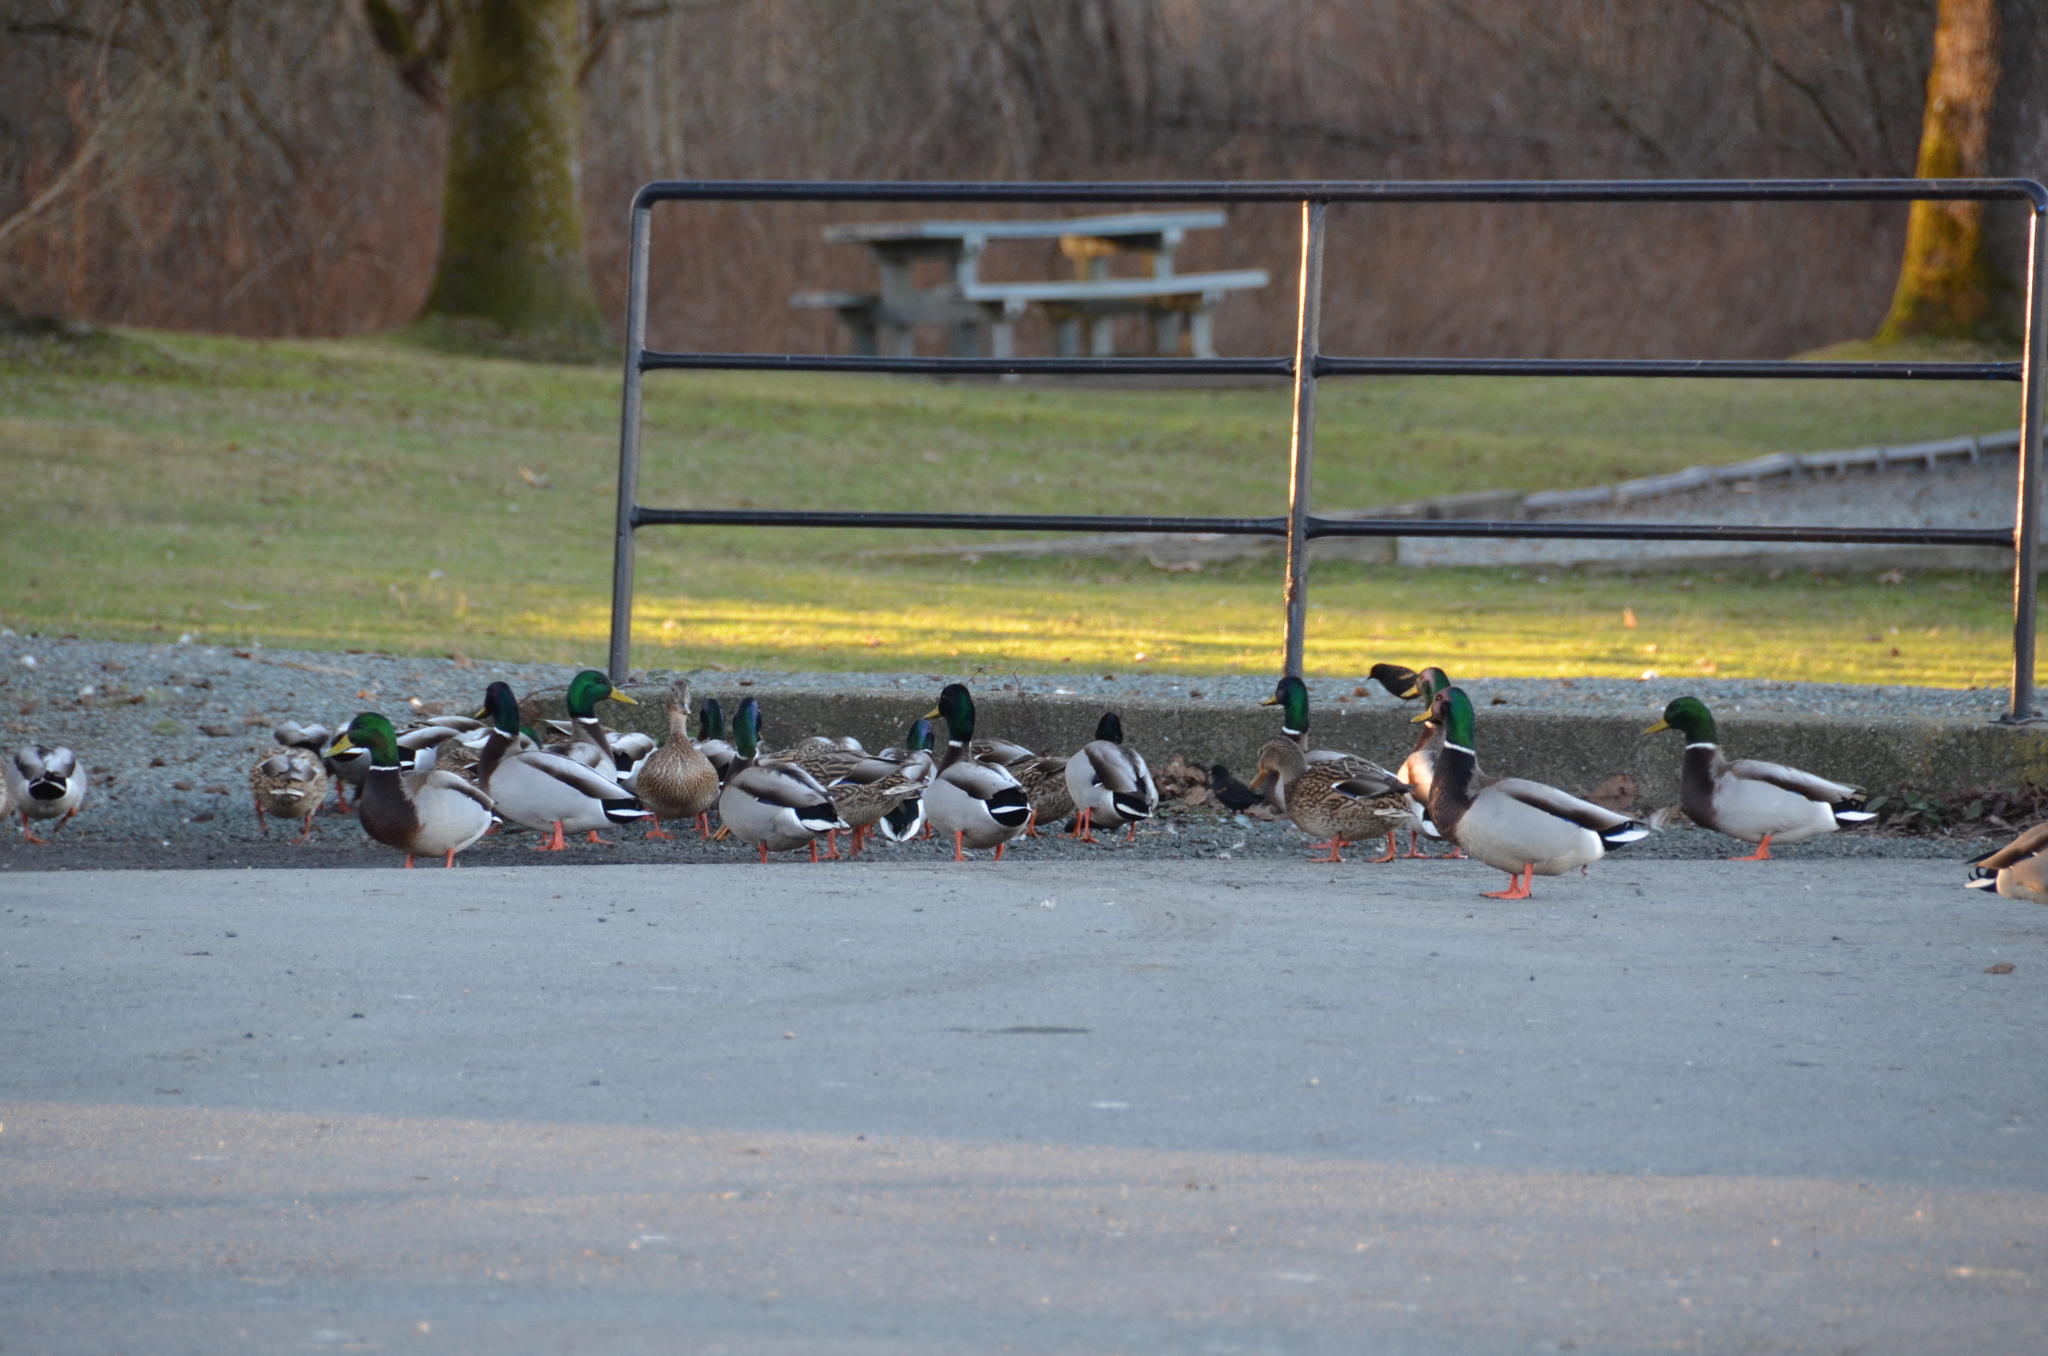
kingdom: Animalia
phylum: Chordata
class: Aves
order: Passeriformes
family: Icteridae
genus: Agelaius
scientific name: Agelaius phoeniceus
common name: Red-winged blackbird
